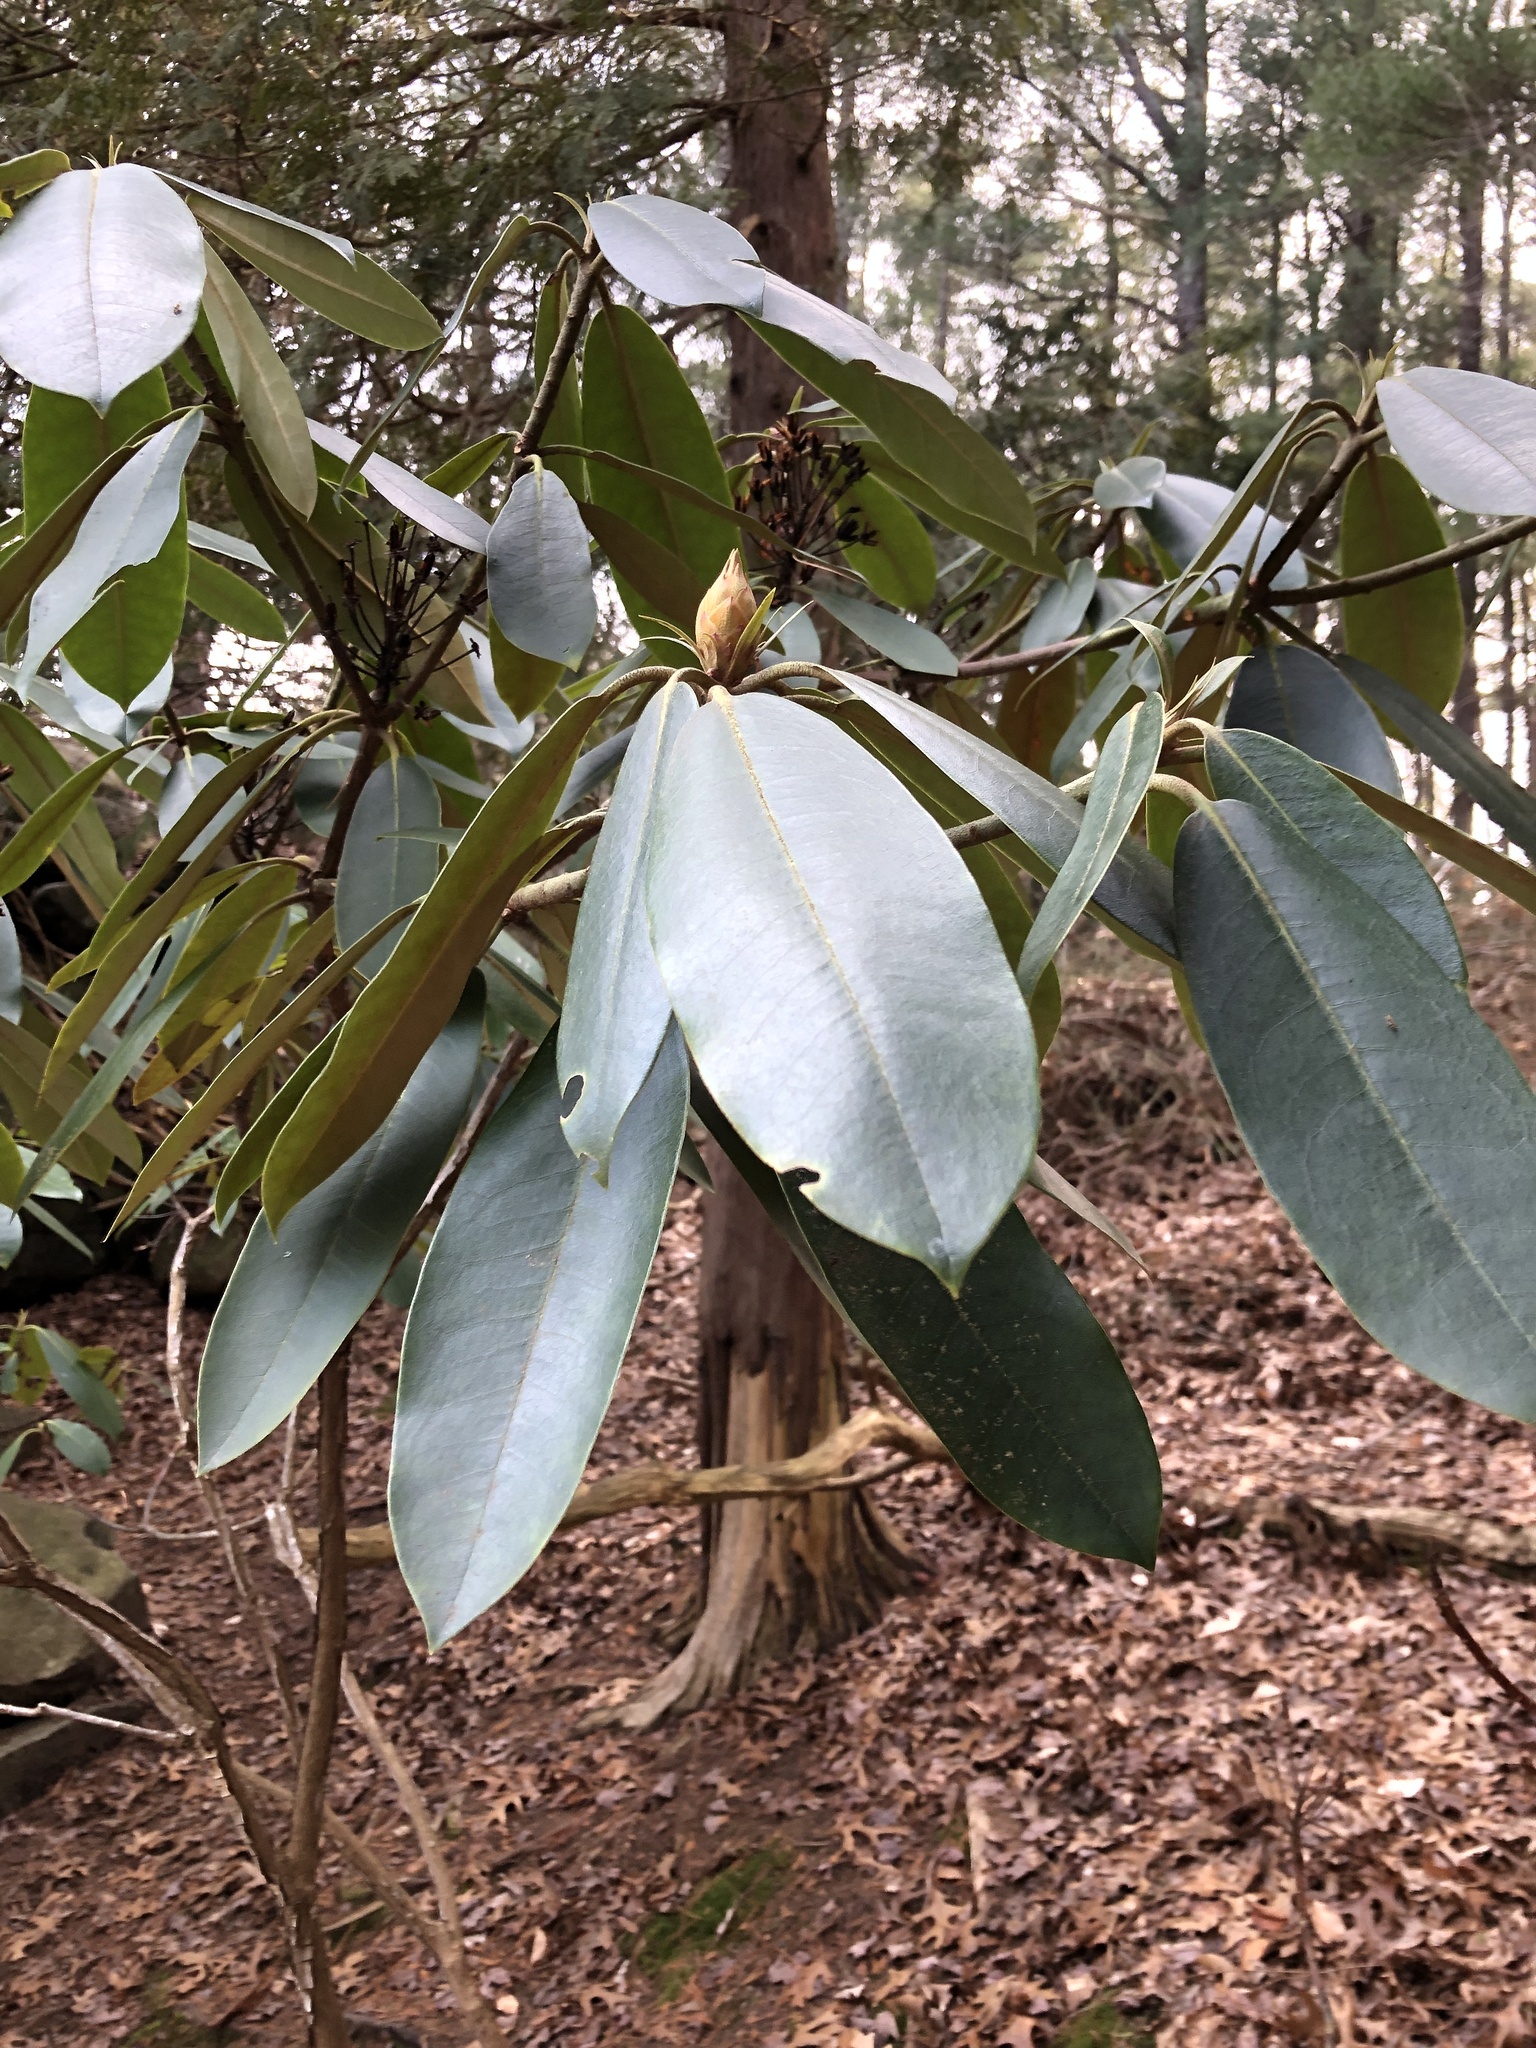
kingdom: Plantae
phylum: Tracheophyta
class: Magnoliopsida
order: Ericales
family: Ericaceae
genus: Rhododendron
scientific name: Rhododendron maximum
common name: Great rhododendron
